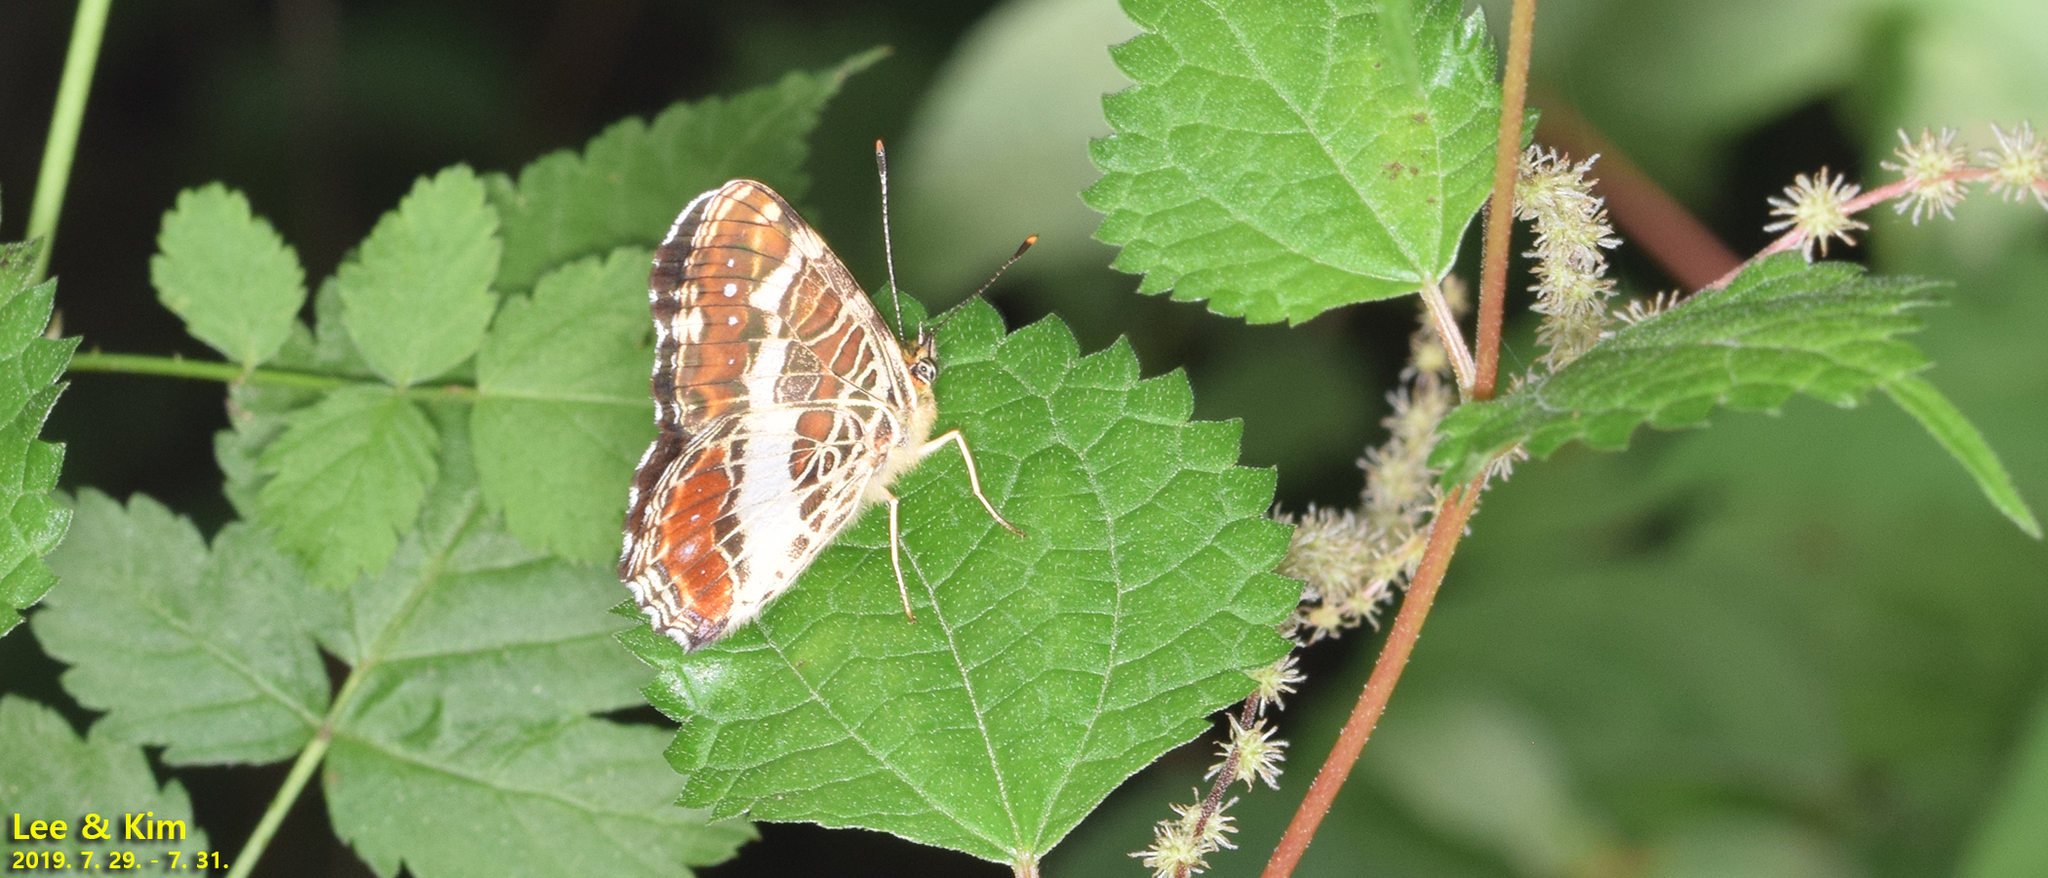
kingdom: Animalia
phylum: Arthropoda
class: Insecta
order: Lepidoptera
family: Nymphalidae
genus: Araschnia
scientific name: Araschnia burejana
